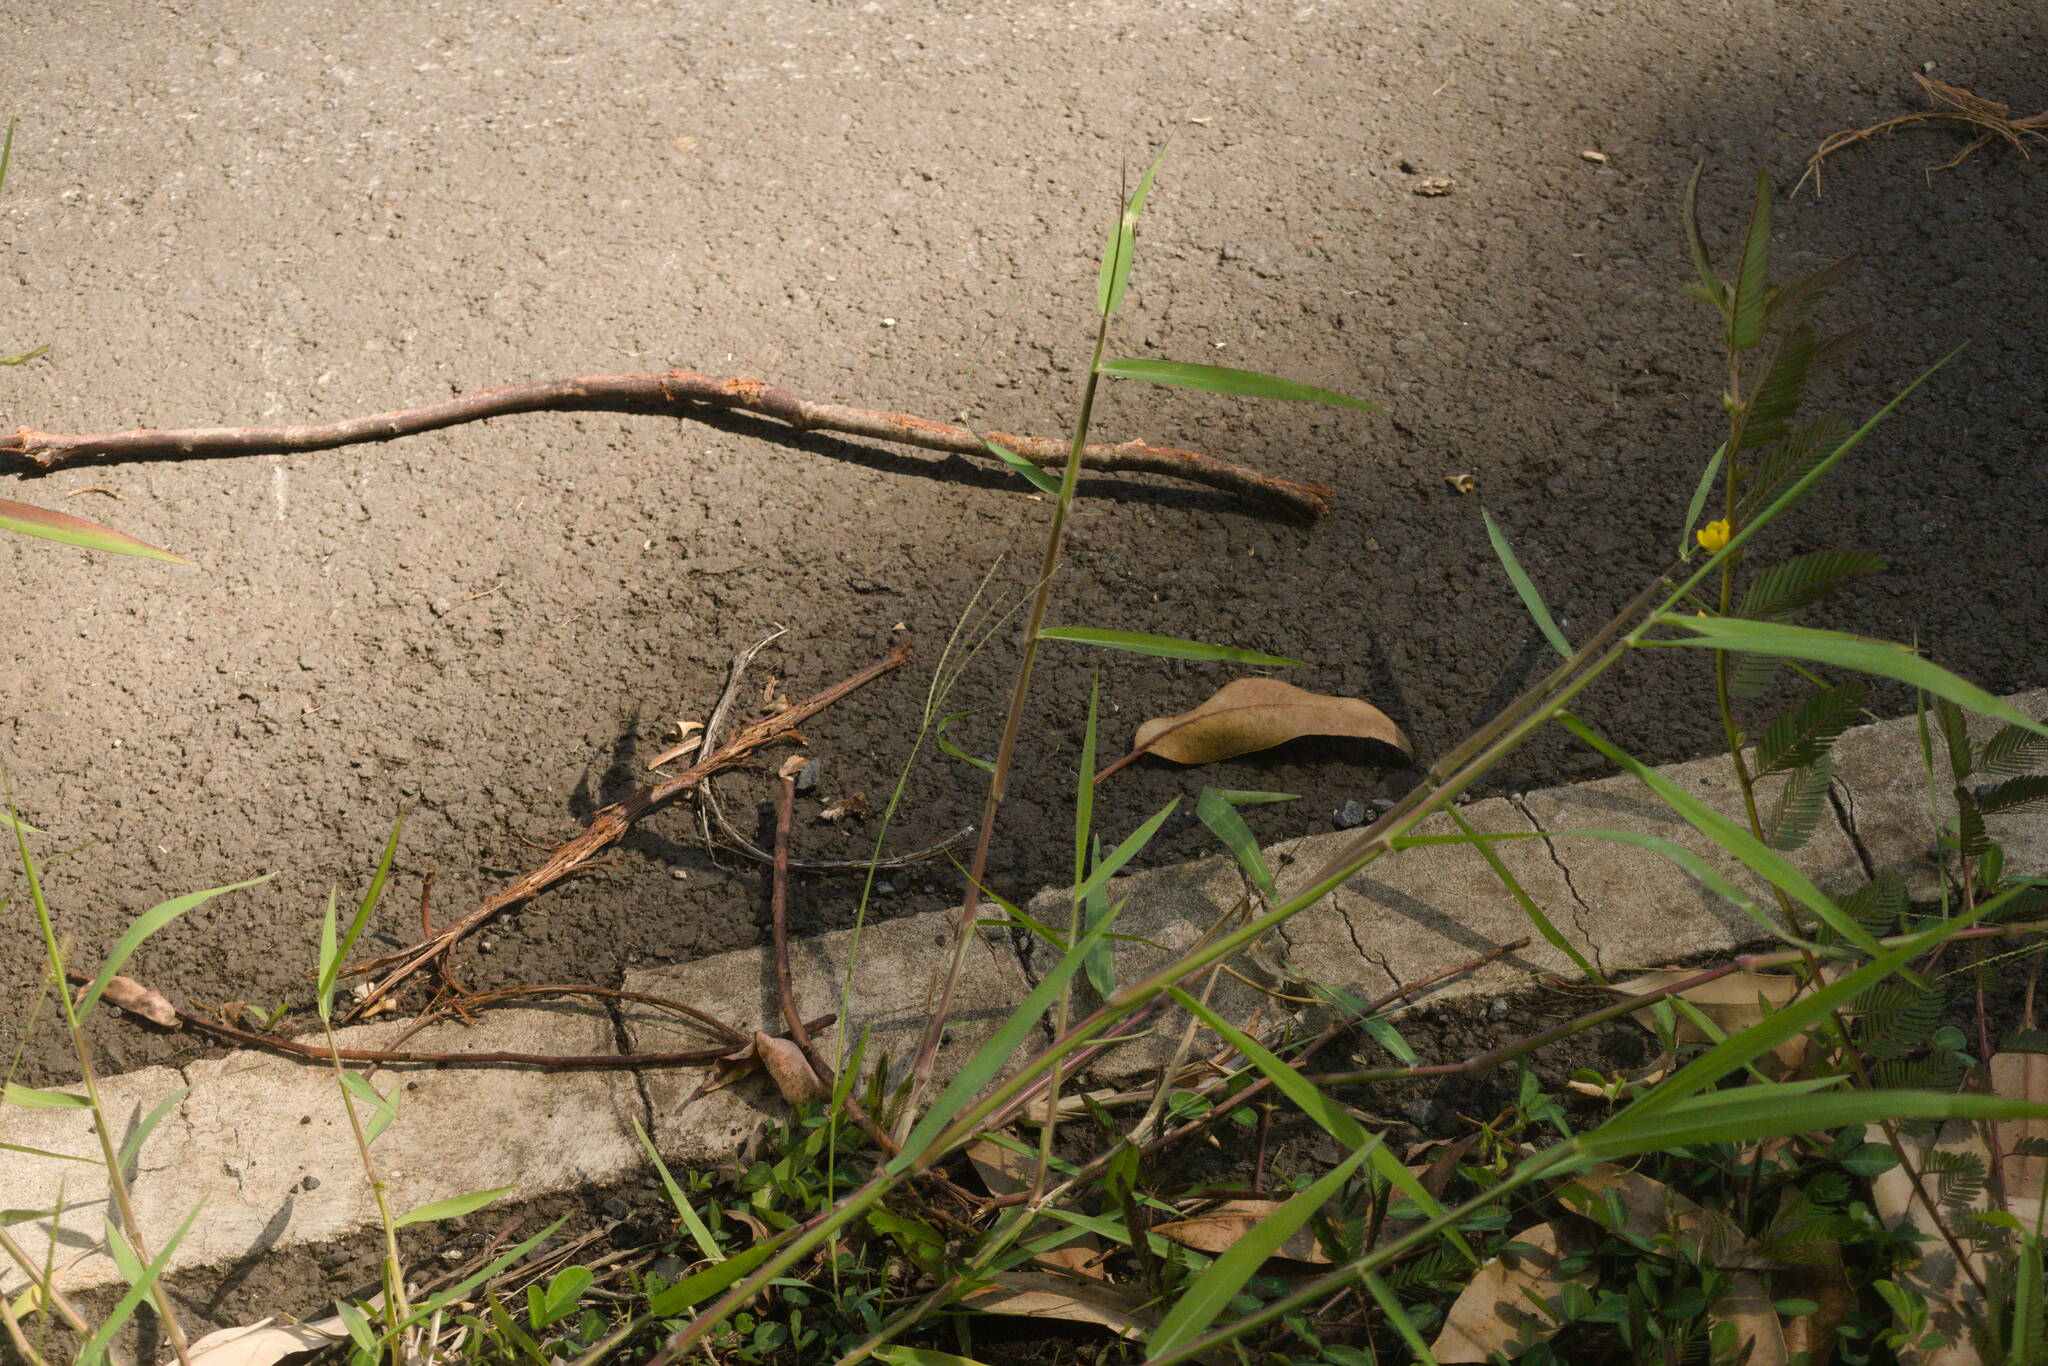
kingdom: Plantae
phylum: Tracheophyta
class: Liliopsida
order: Poales
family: Poaceae
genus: Urochloa
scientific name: Urochloa mutica
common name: Para grass
